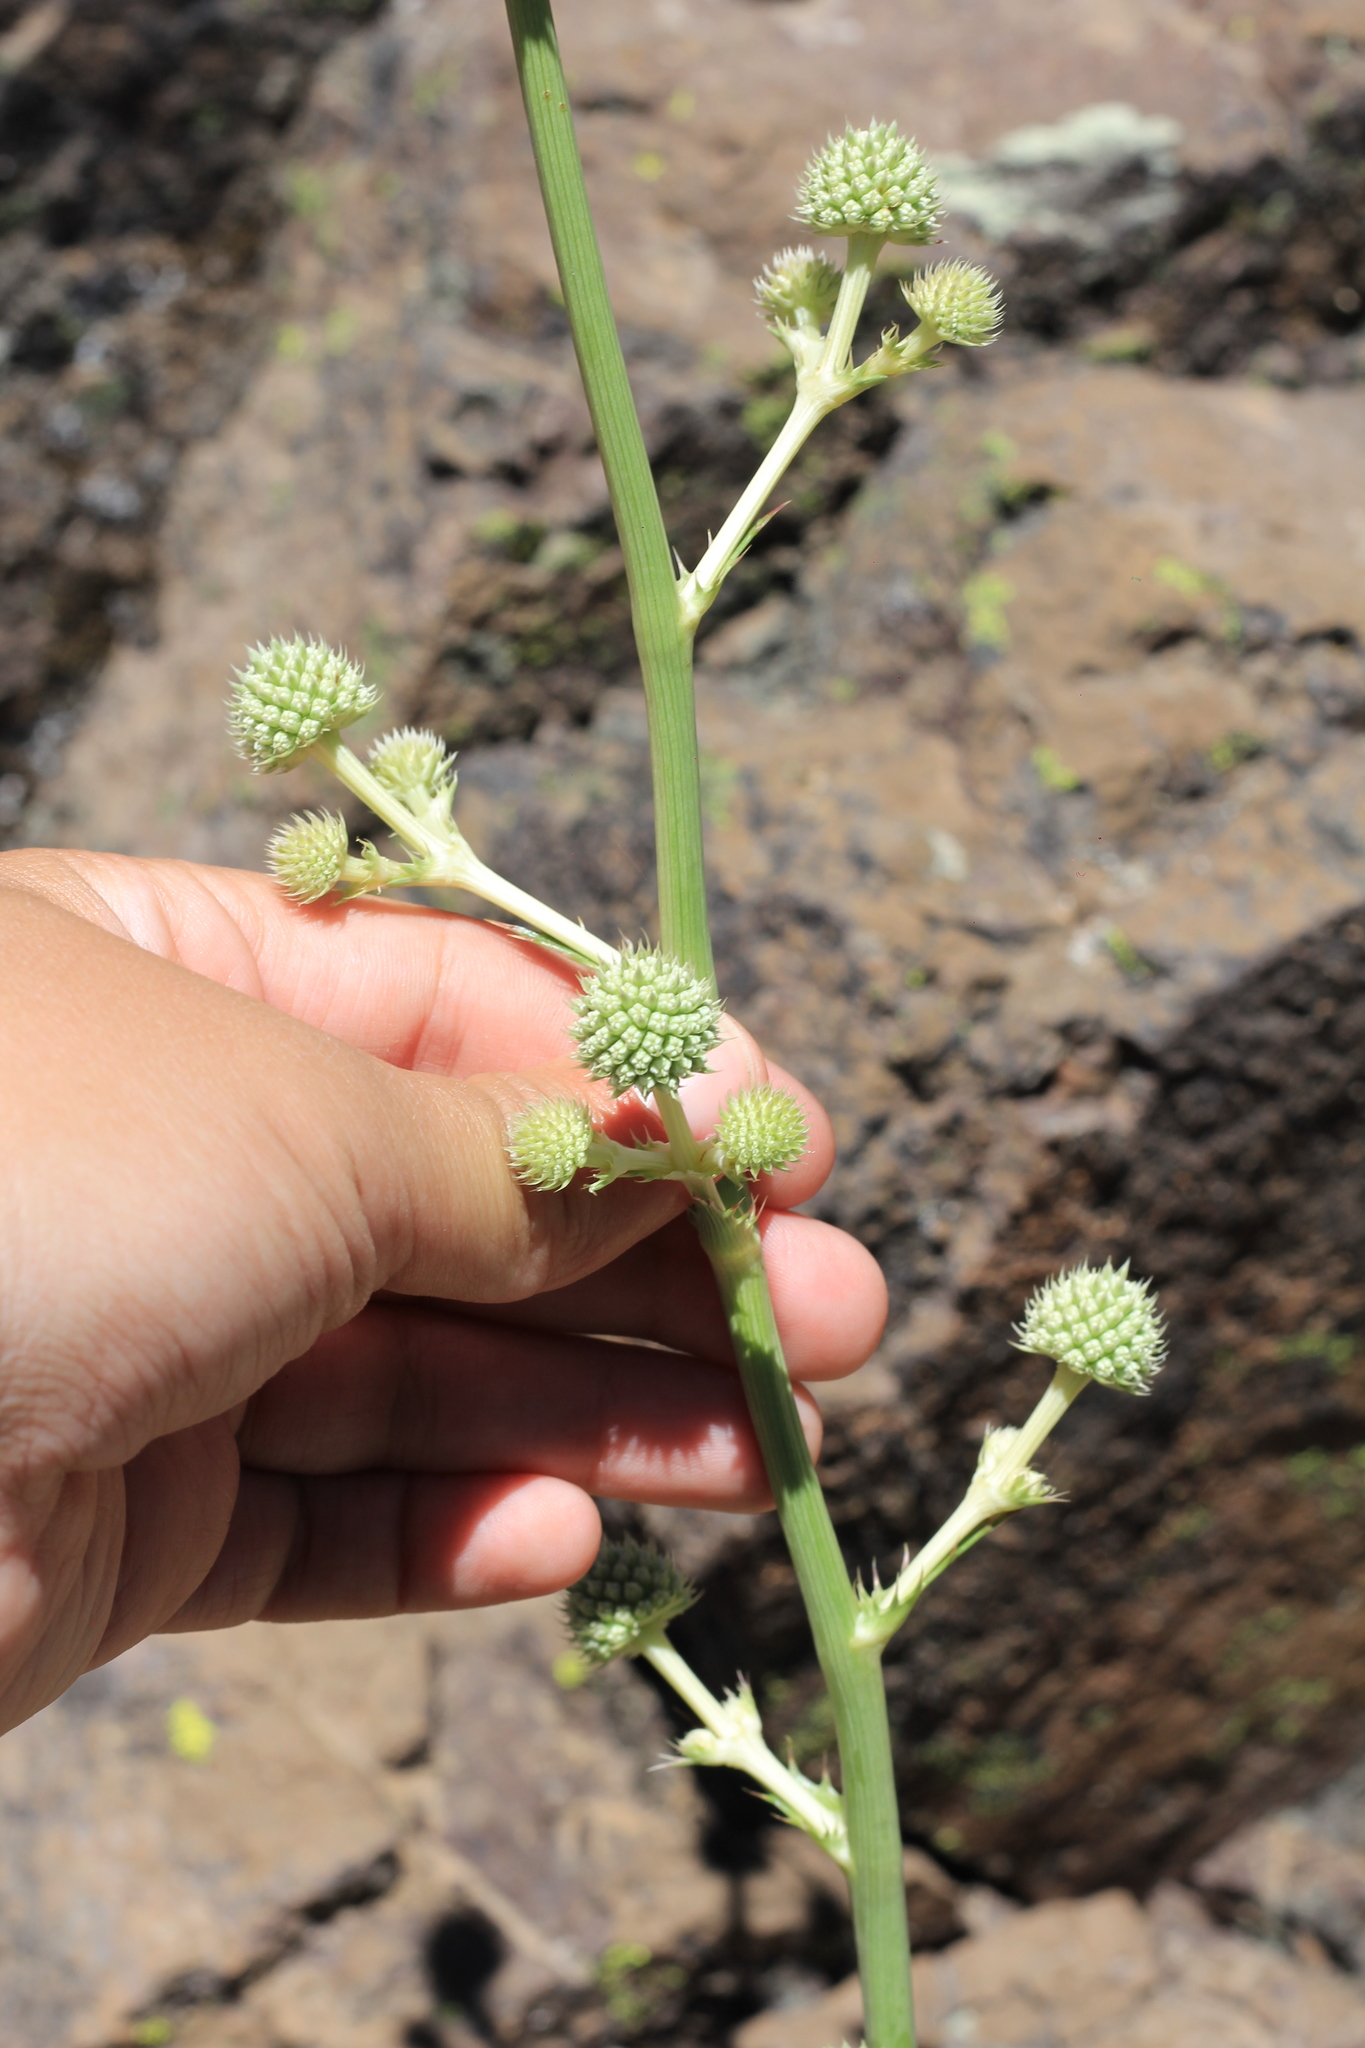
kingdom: Plantae
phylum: Tracheophyta
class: Magnoliopsida
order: Apiales
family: Apiaceae
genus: Eryngium
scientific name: Eryngium humboldtii
